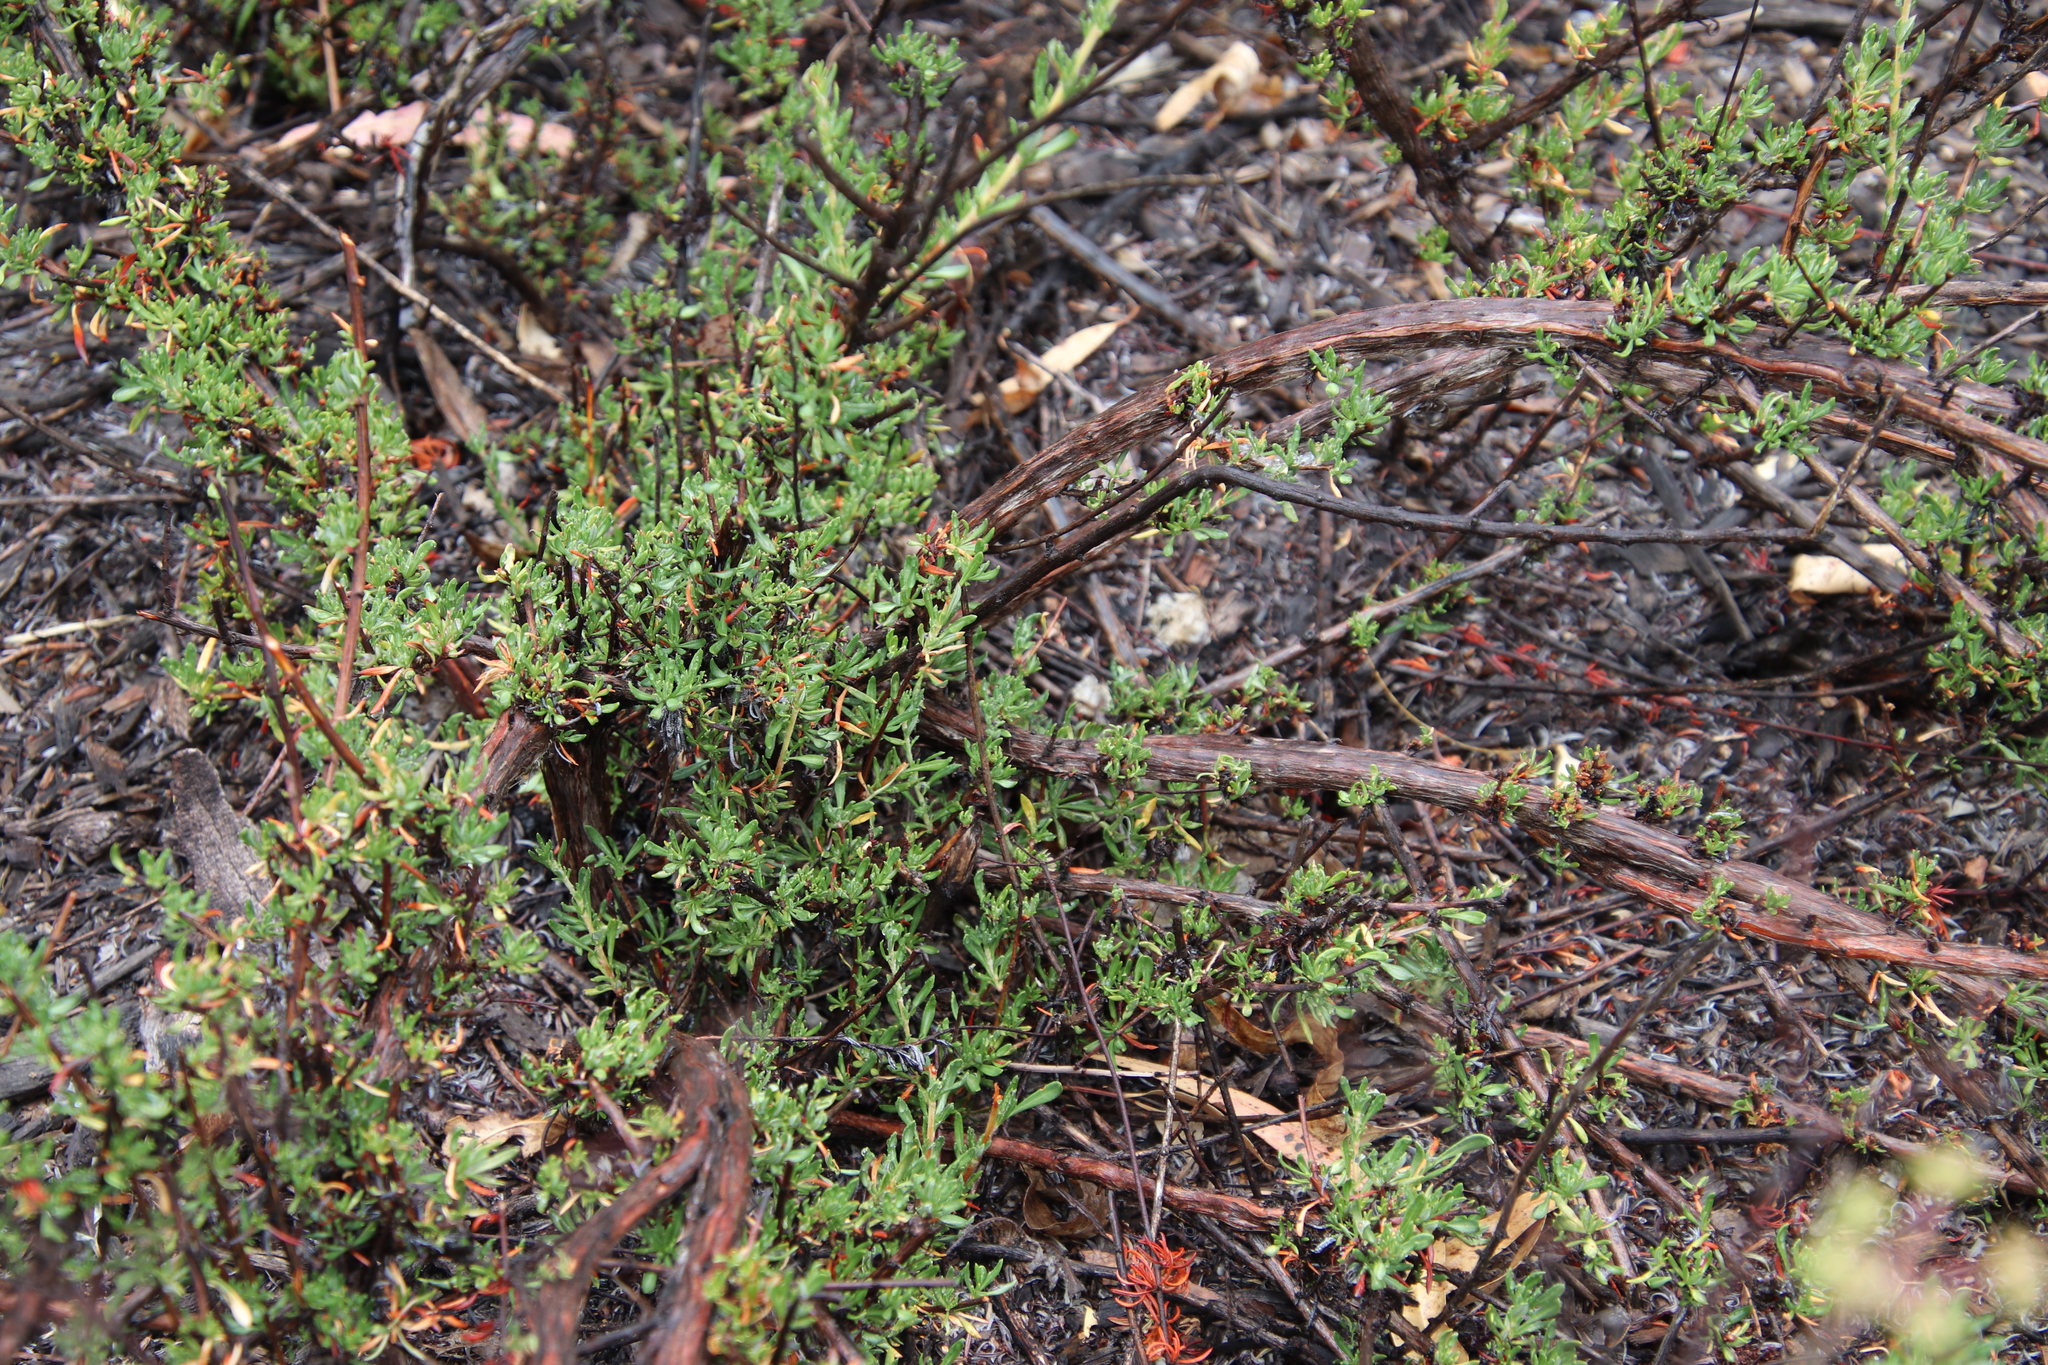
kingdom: Plantae
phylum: Tracheophyta
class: Magnoliopsida
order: Caryophyllales
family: Polygonaceae
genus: Eriogonum
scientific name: Eriogonum fasciculatum
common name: California wild buckwheat
